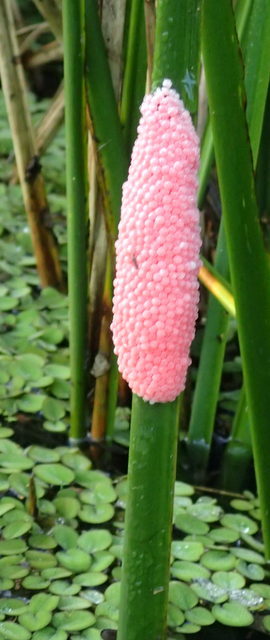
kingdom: Animalia
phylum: Mollusca
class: Gastropoda
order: Architaenioglossa
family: Ampullariidae
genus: Pomacea
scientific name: Pomacea maculata
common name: Giant applesnail
